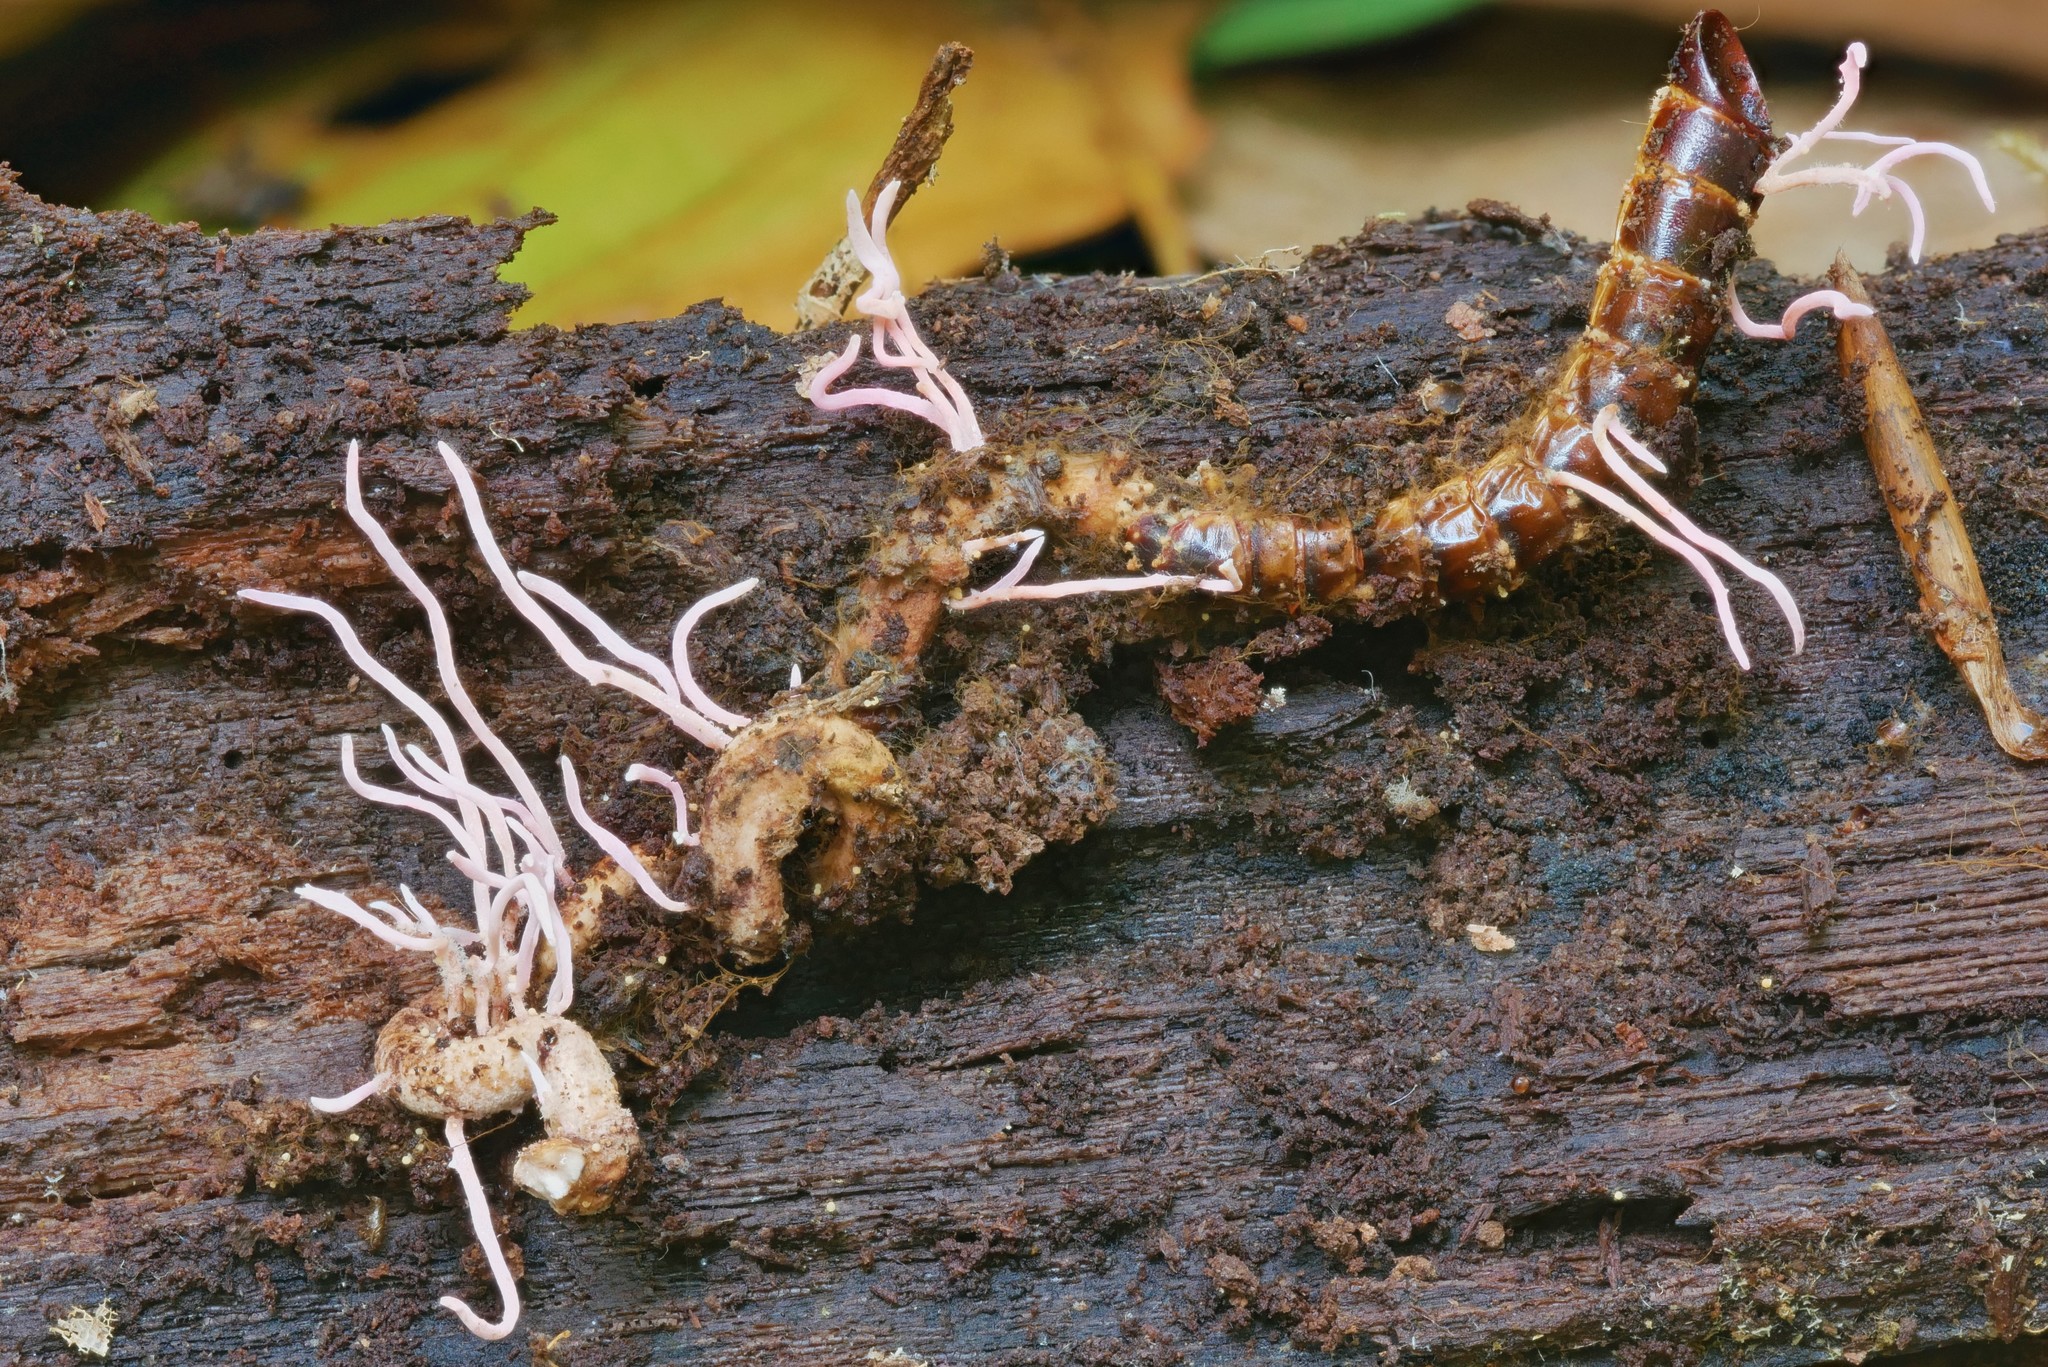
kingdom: Fungi
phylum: Ascomycota
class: Sordariomycetes
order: Hypocreales
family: Cordycipitaceae
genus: Akanthomyces
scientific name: Akanthomyces angustisporus
